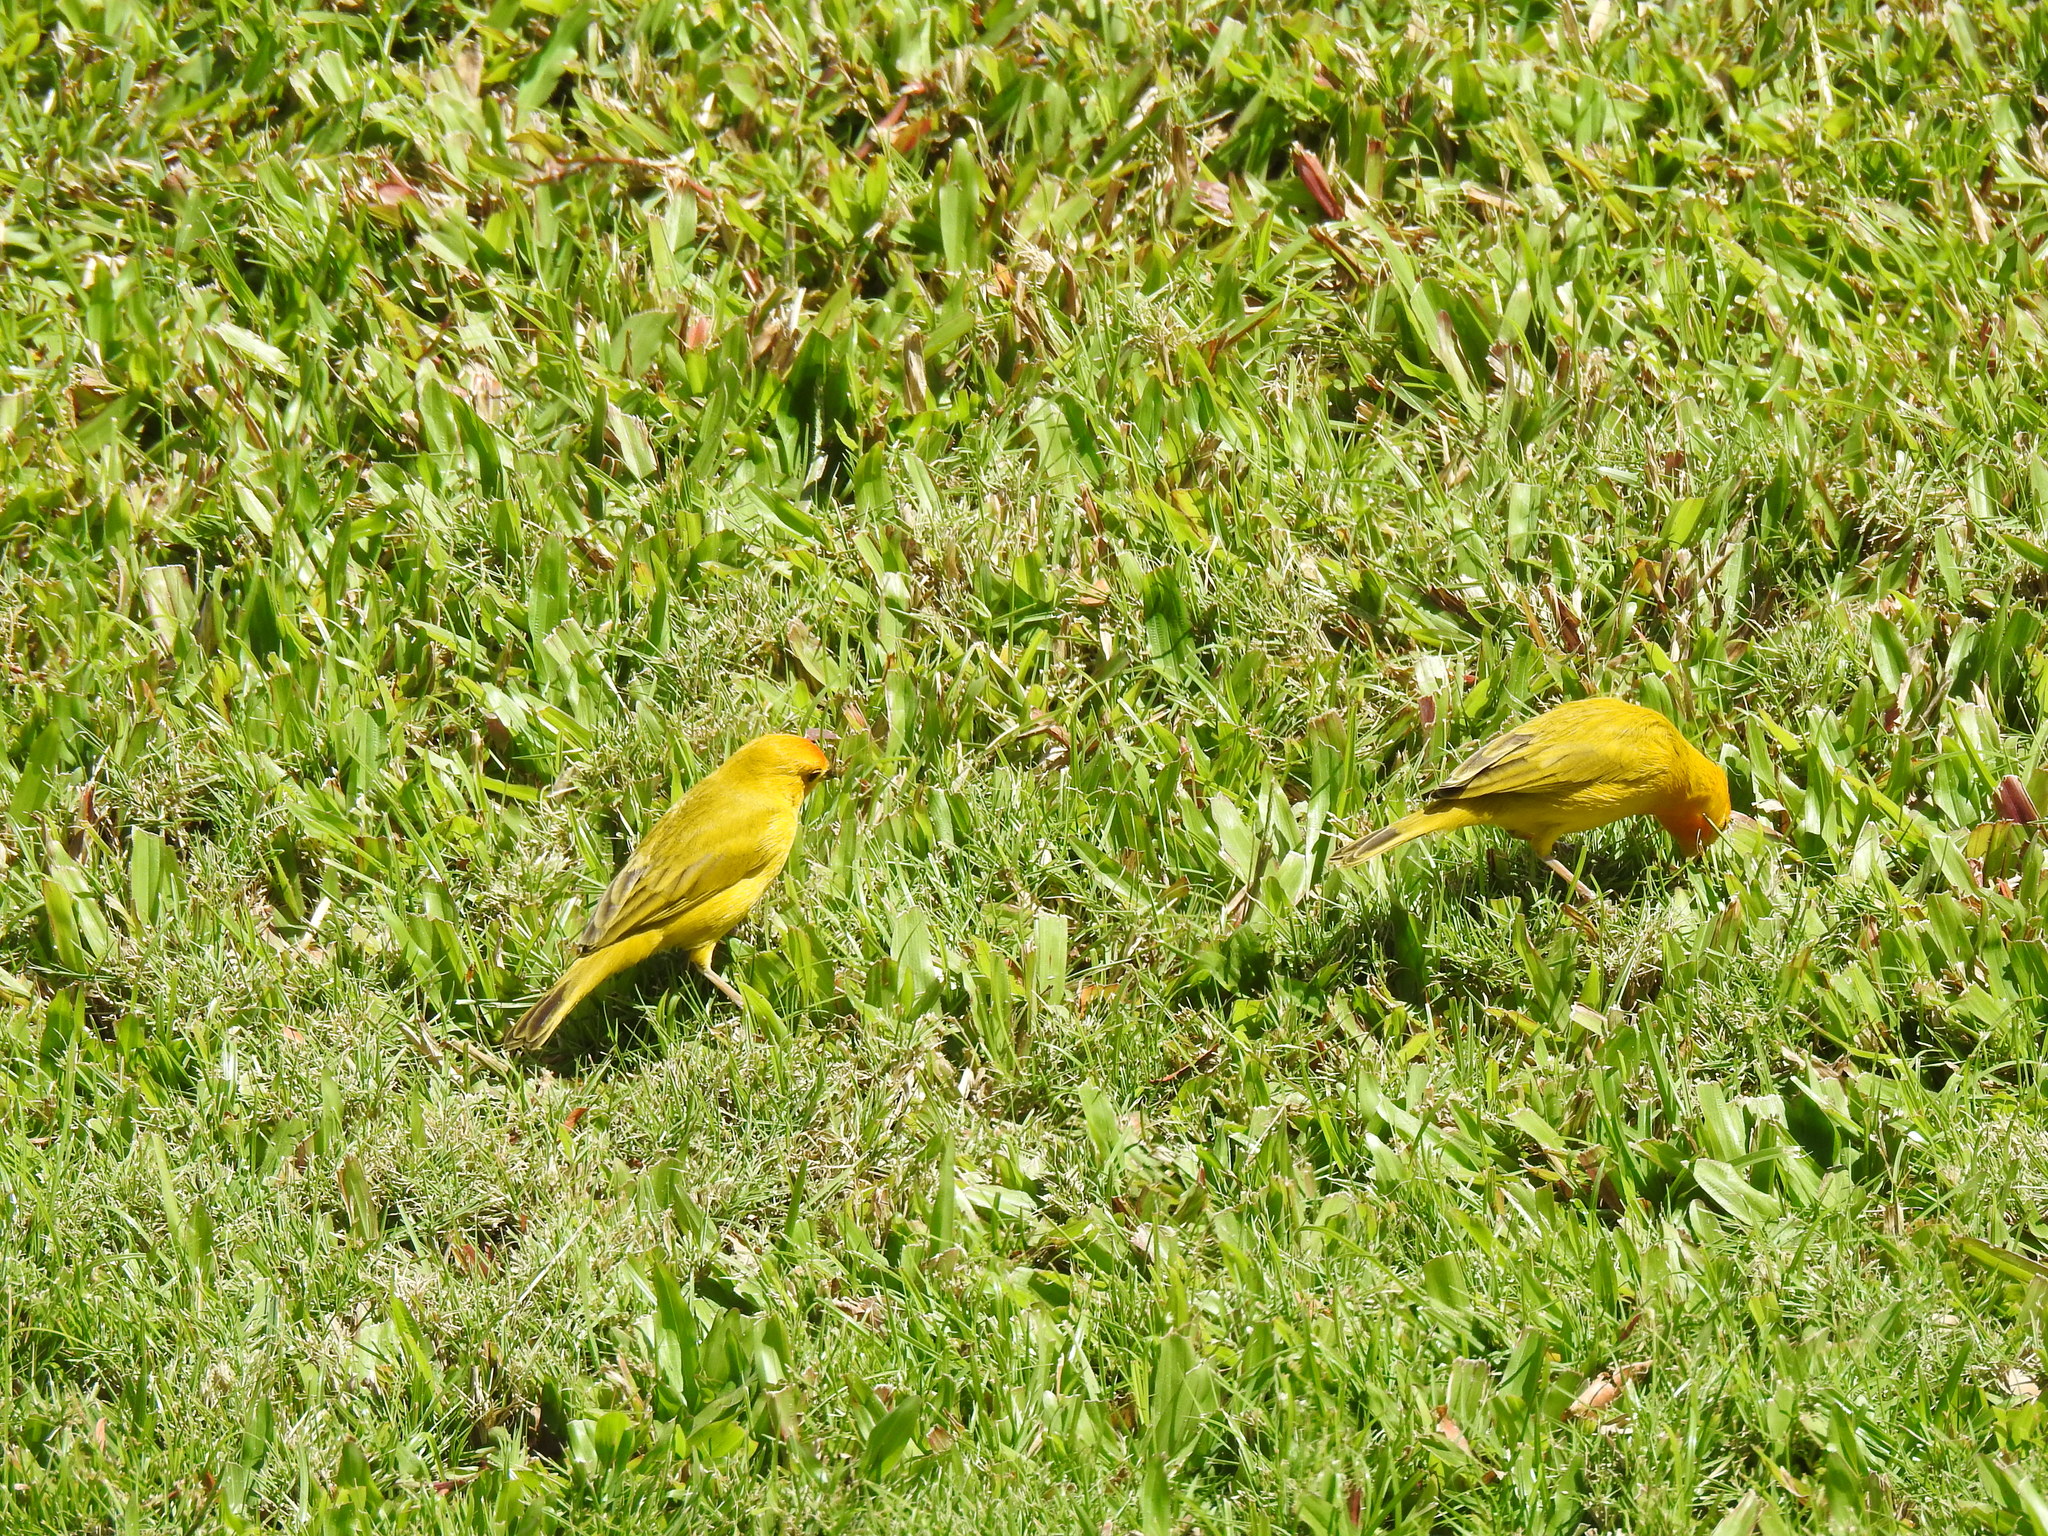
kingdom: Animalia
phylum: Chordata
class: Aves
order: Passeriformes
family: Thraupidae
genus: Sicalis
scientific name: Sicalis flaveola
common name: Saffron finch
